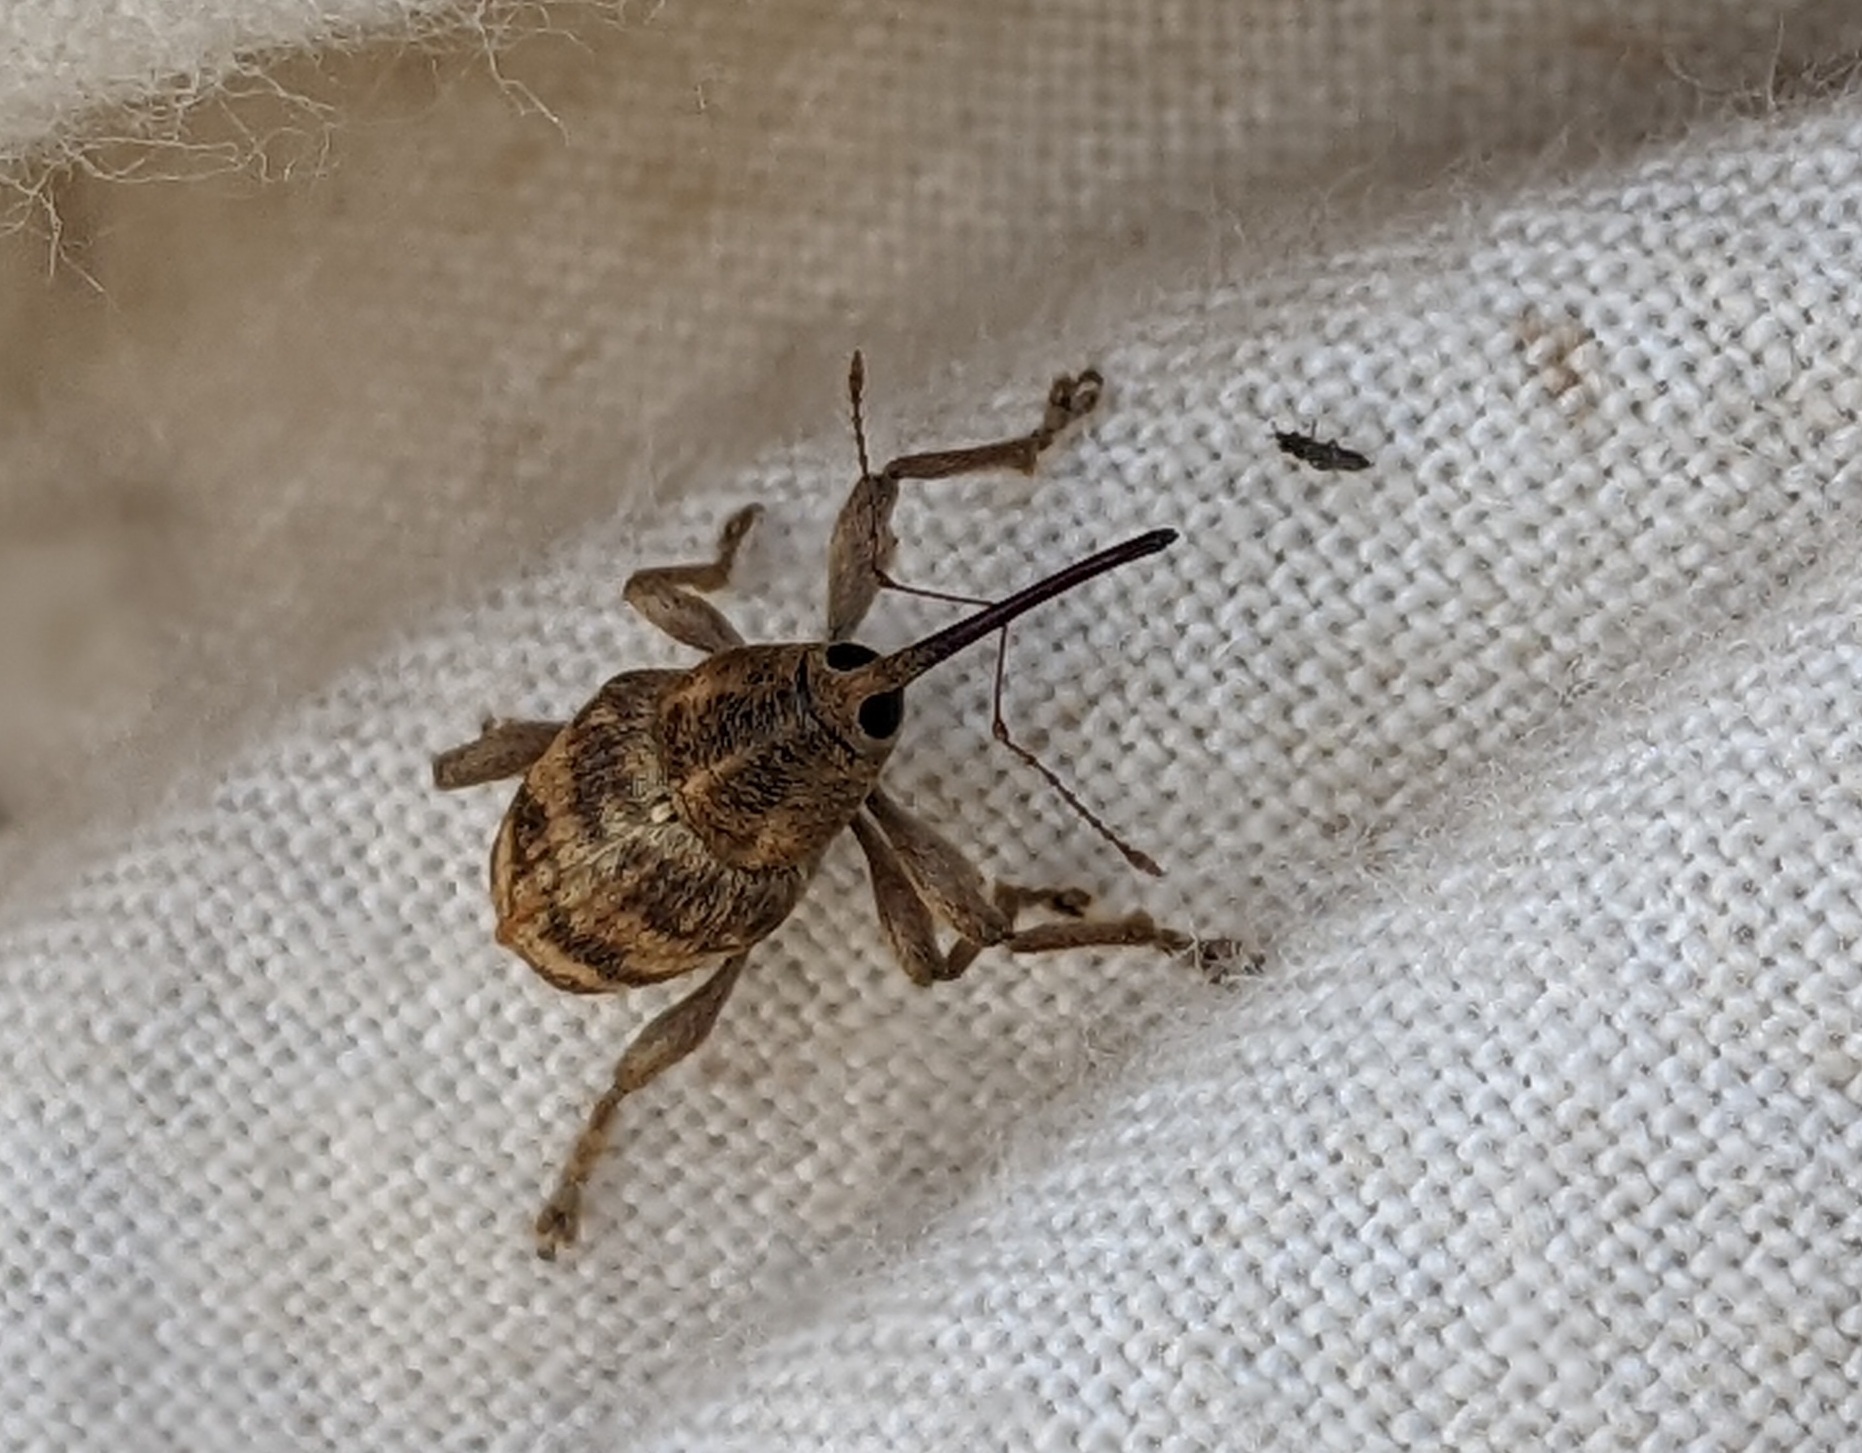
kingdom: Animalia
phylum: Arthropoda
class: Insecta
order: Coleoptera
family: Curculionidae
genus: Curculio
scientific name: Curculio venosus
